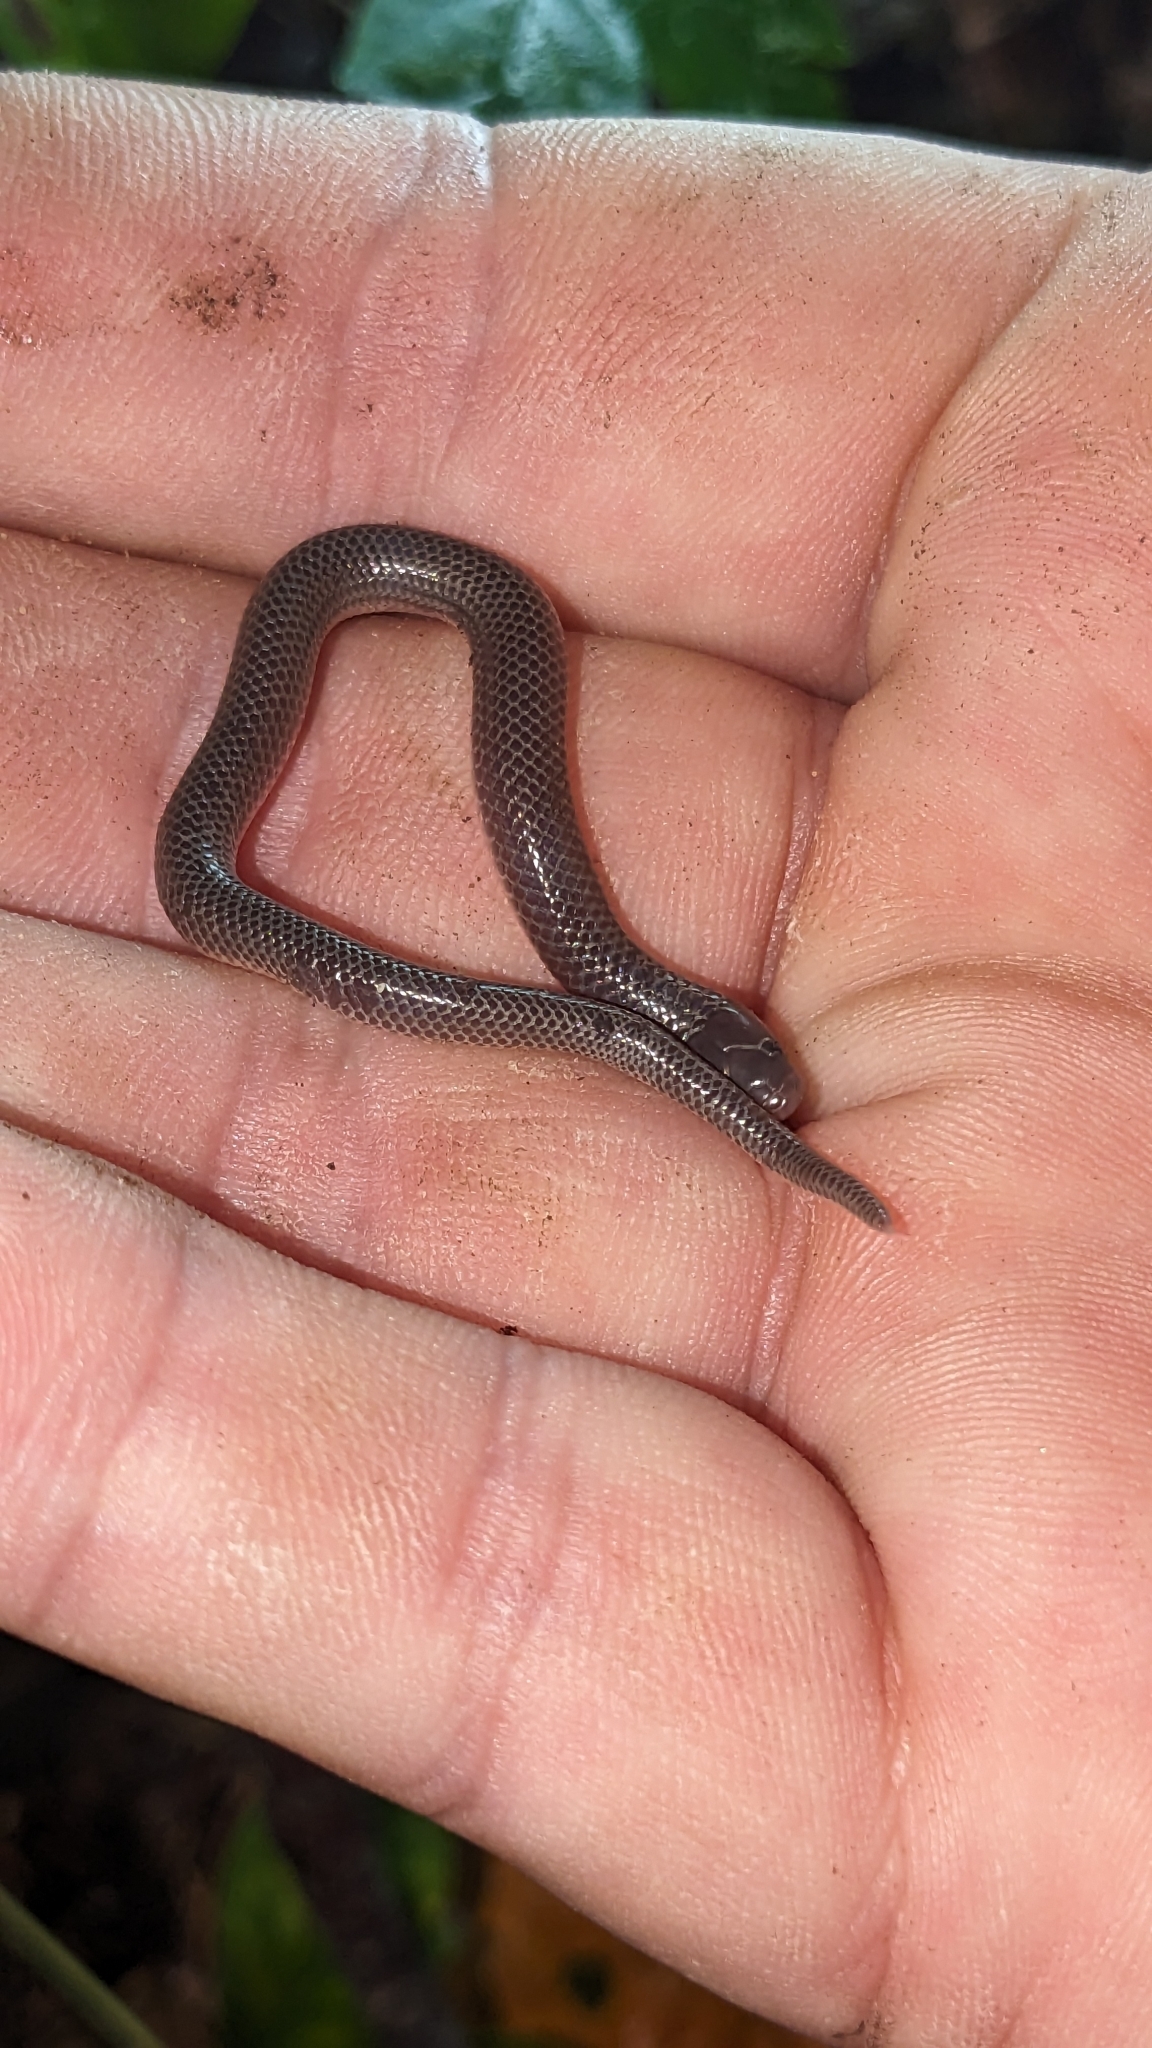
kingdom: Animalia
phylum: Chordata
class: Squamata
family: Colubridae
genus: Carphophis
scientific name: Carphophis amoenus
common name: Eastern worm snake
